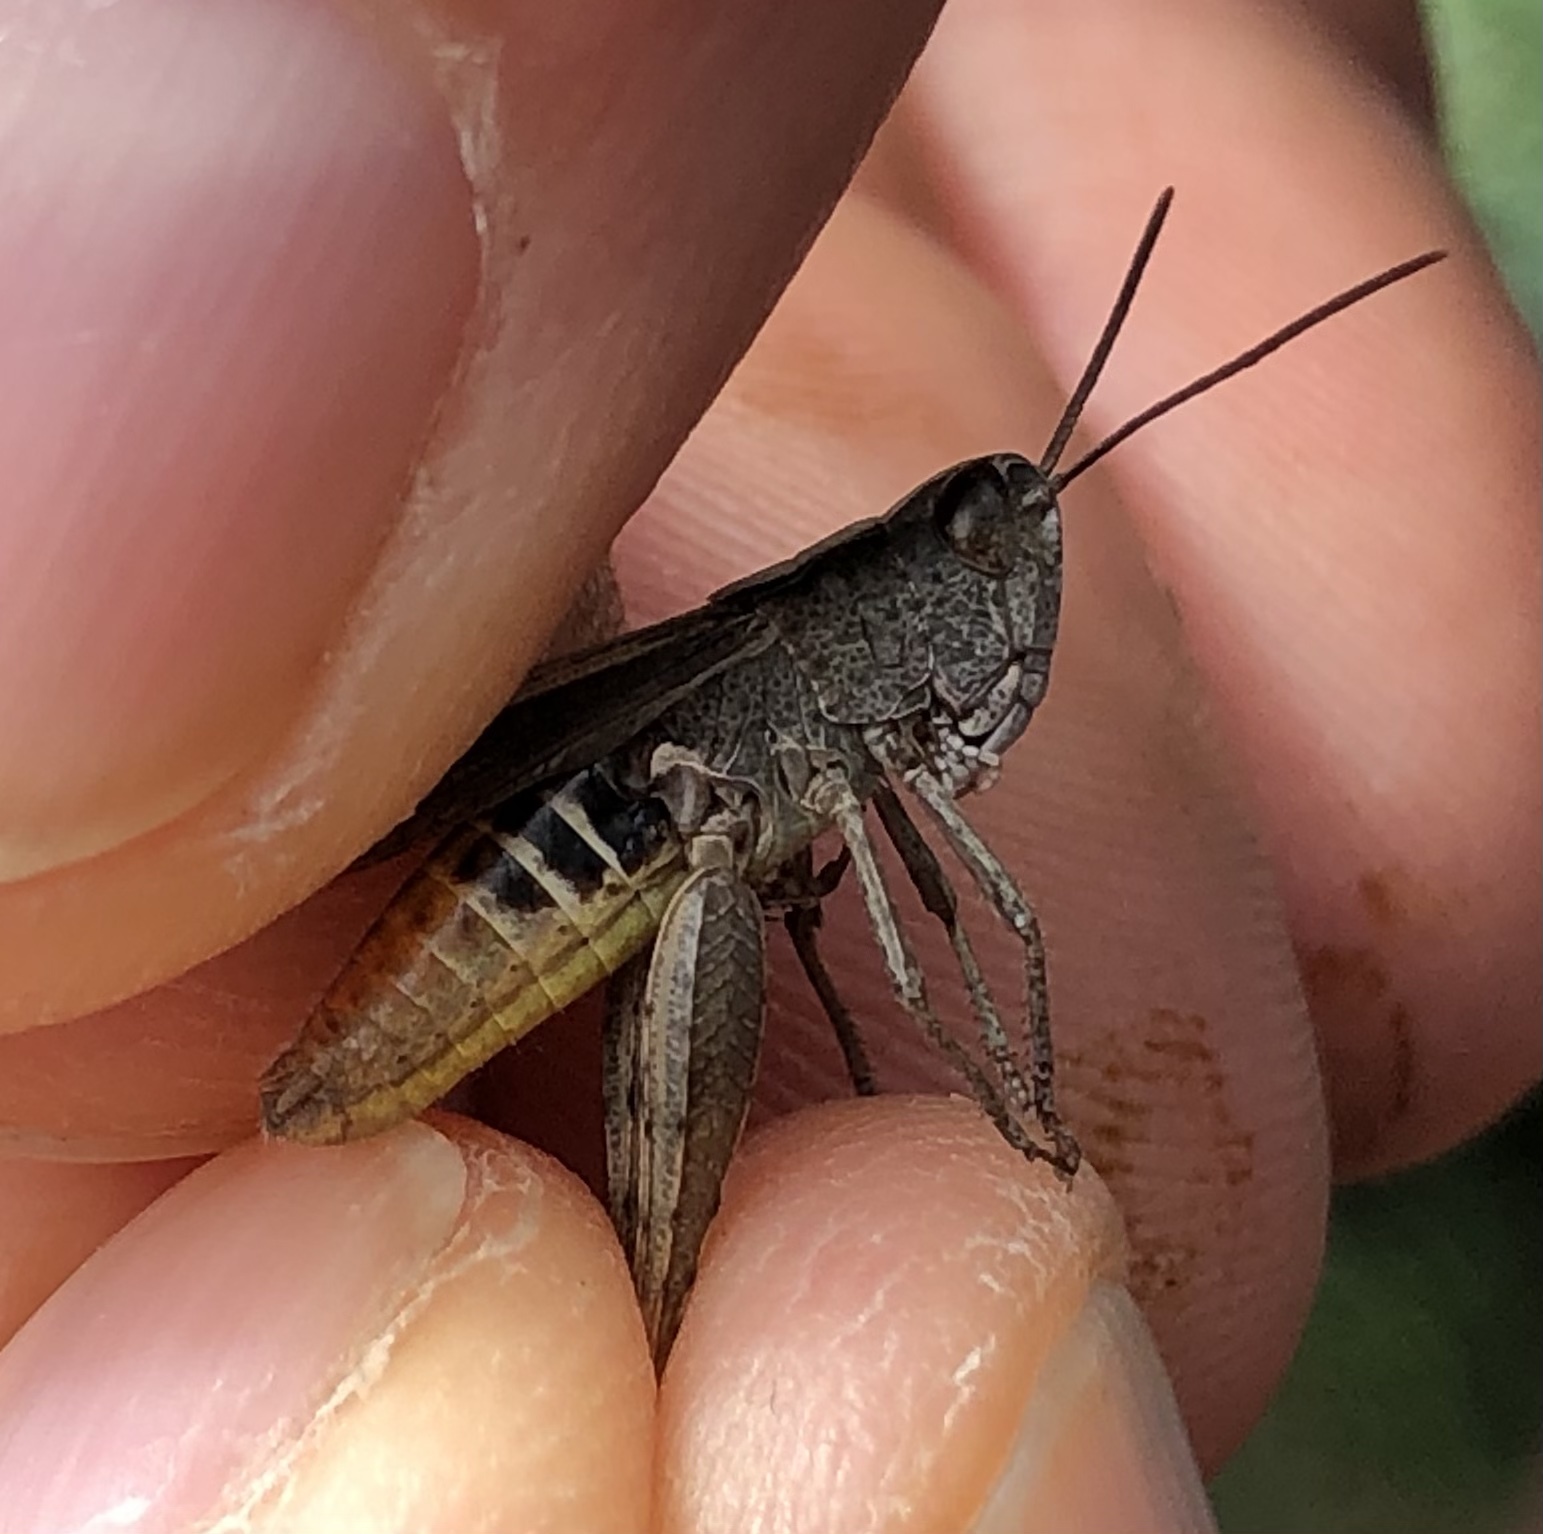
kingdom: Animalia
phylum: Arthropoda
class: Insecta
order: Orthoptera
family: Acrididae
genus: Chorthippus
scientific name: Chorthippus vagans
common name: Heath grasshopper
